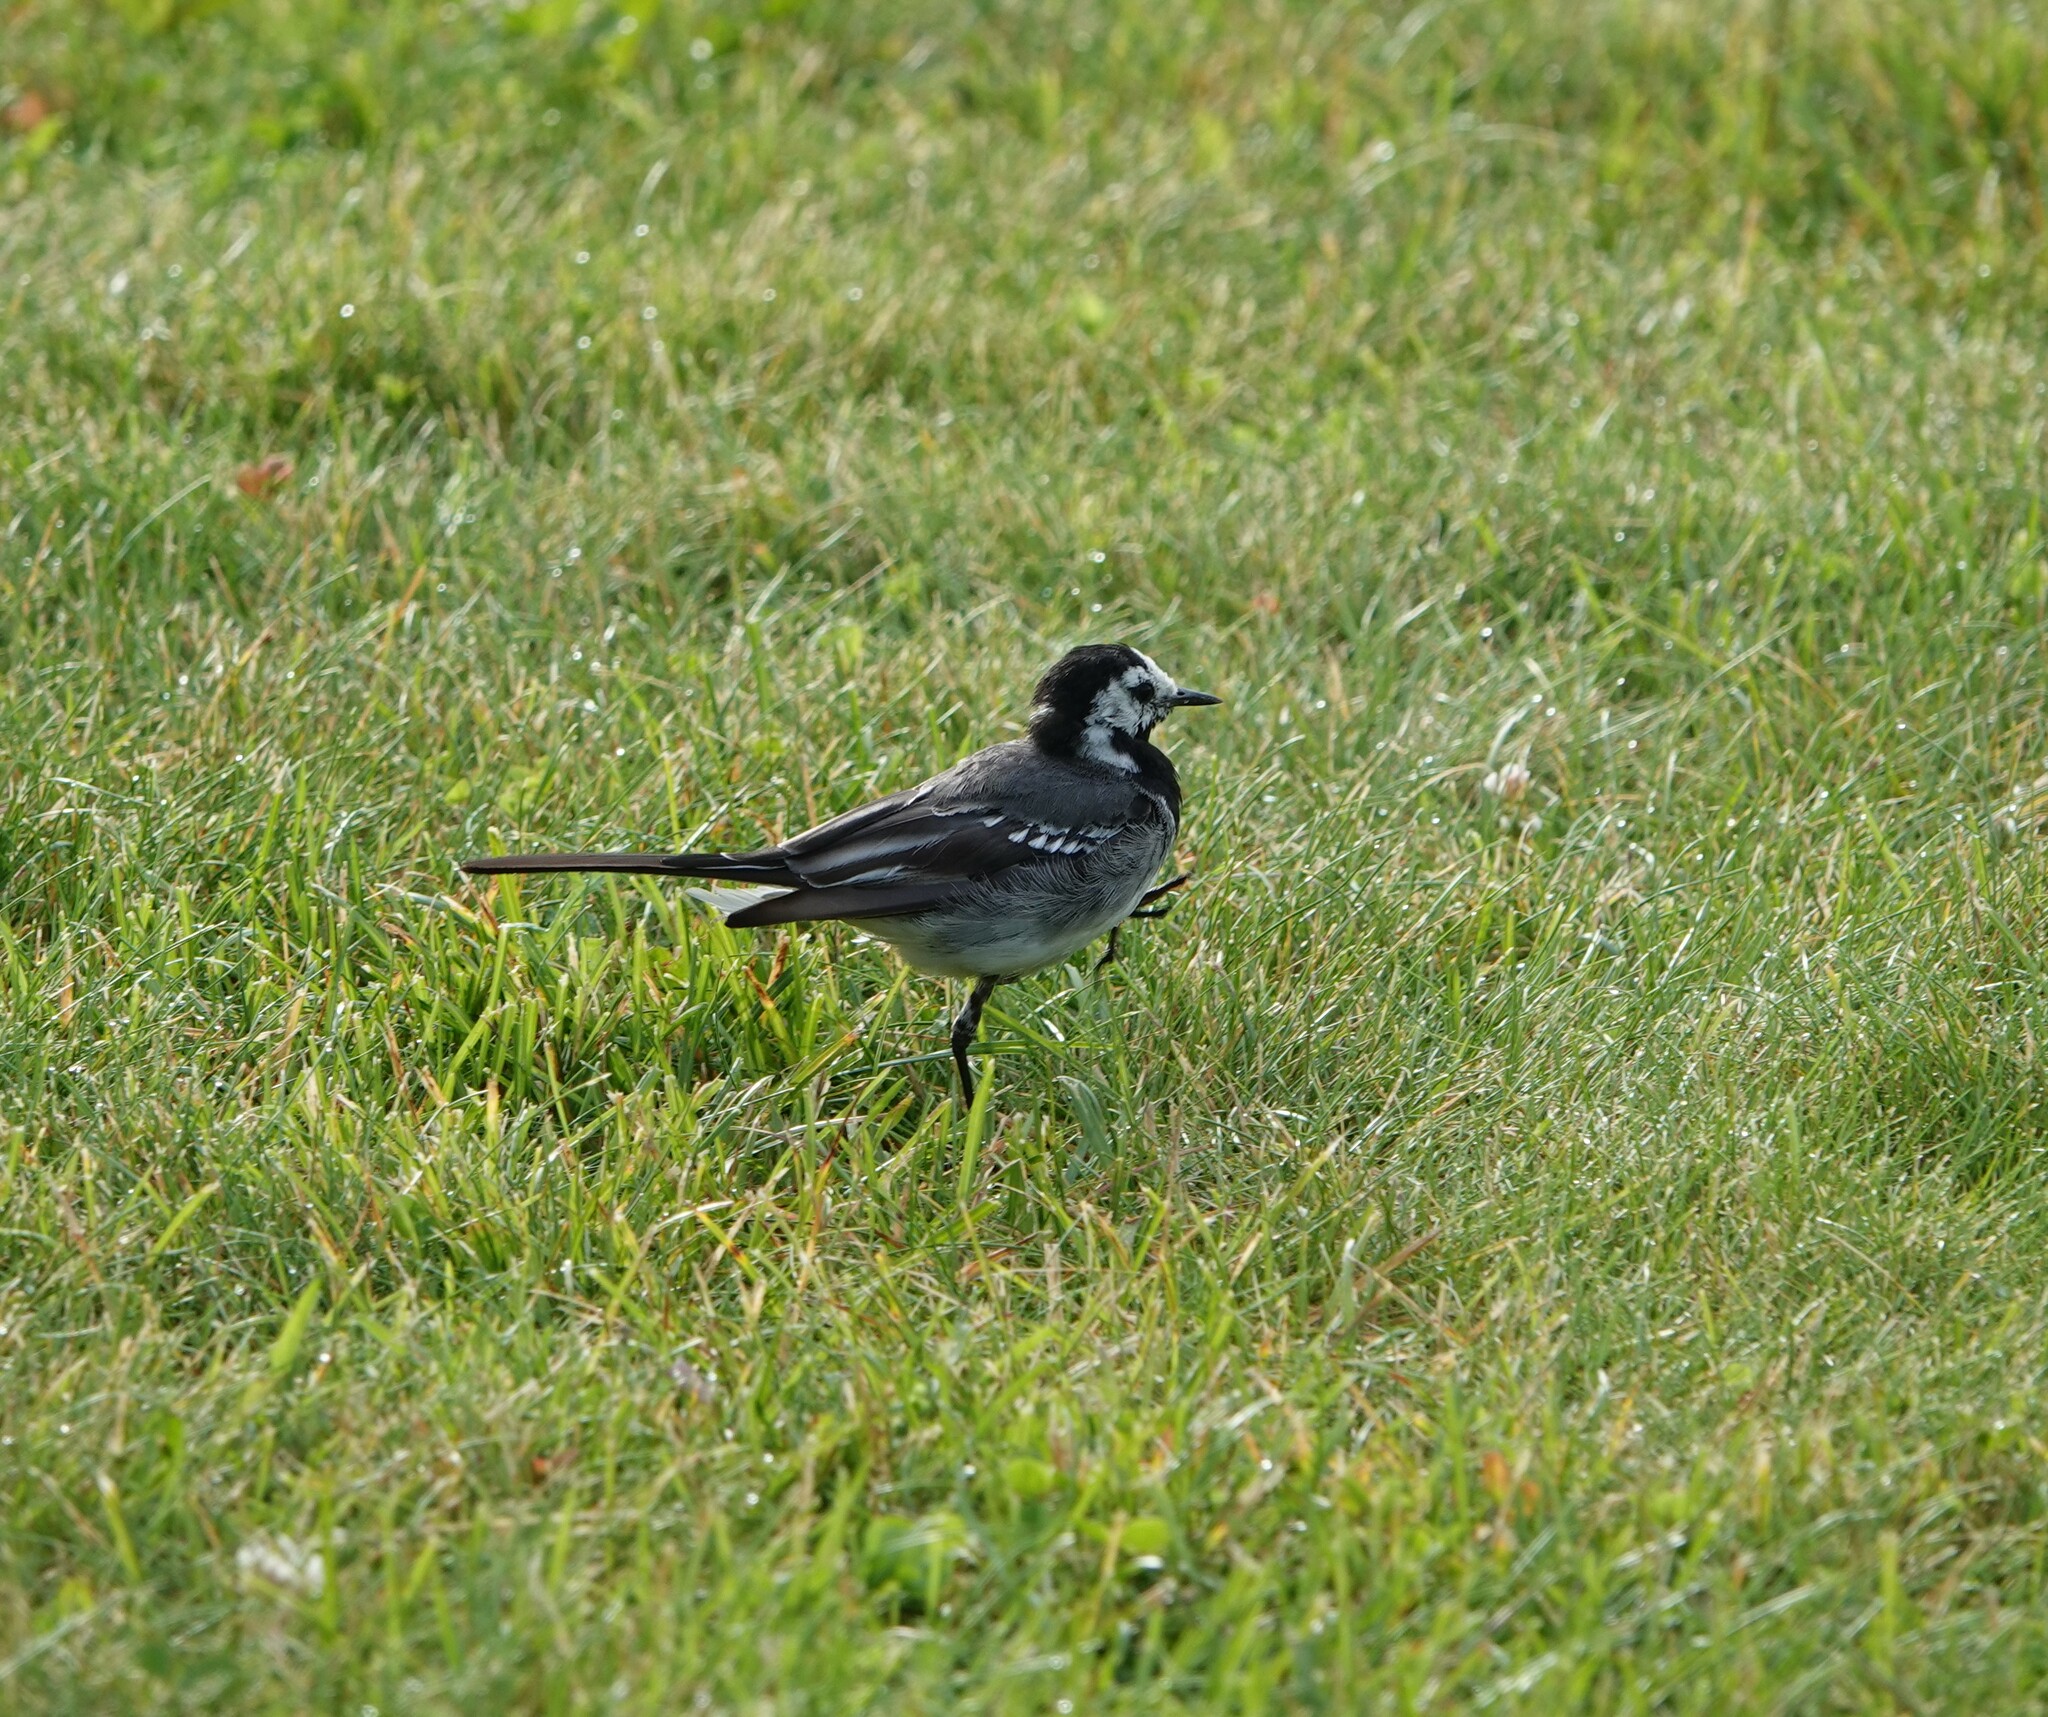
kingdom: Animalia
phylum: Chordata
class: Aves
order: Passeriformes
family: Motacillidae
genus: Motacilla
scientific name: Motacilla alba
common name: White wagtail
